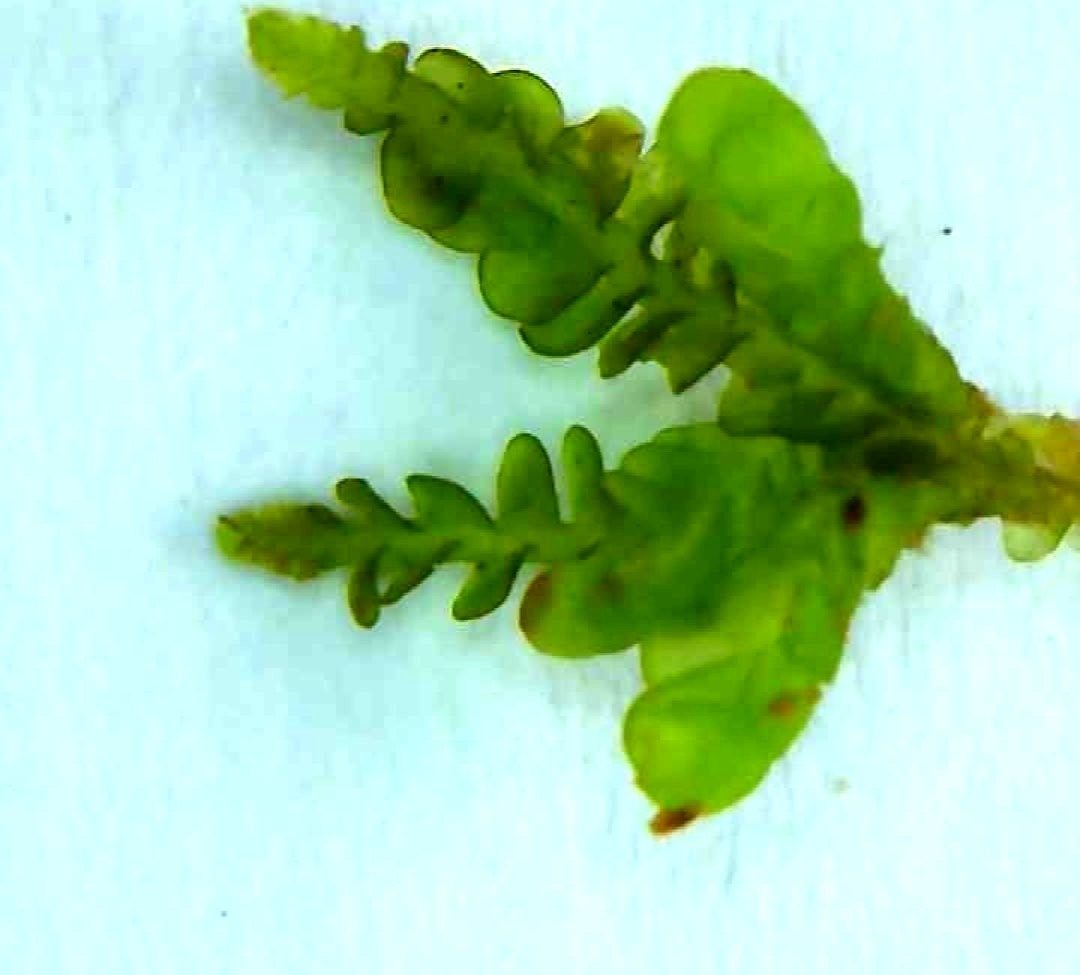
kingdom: Plantae
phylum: Marchantiophyta
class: Jungermanniopsida
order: Jungermanniales
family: Cephaloziaceae
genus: Odontoschisma
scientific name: Odontoschisma denudatum
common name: Matchstick flapwort
